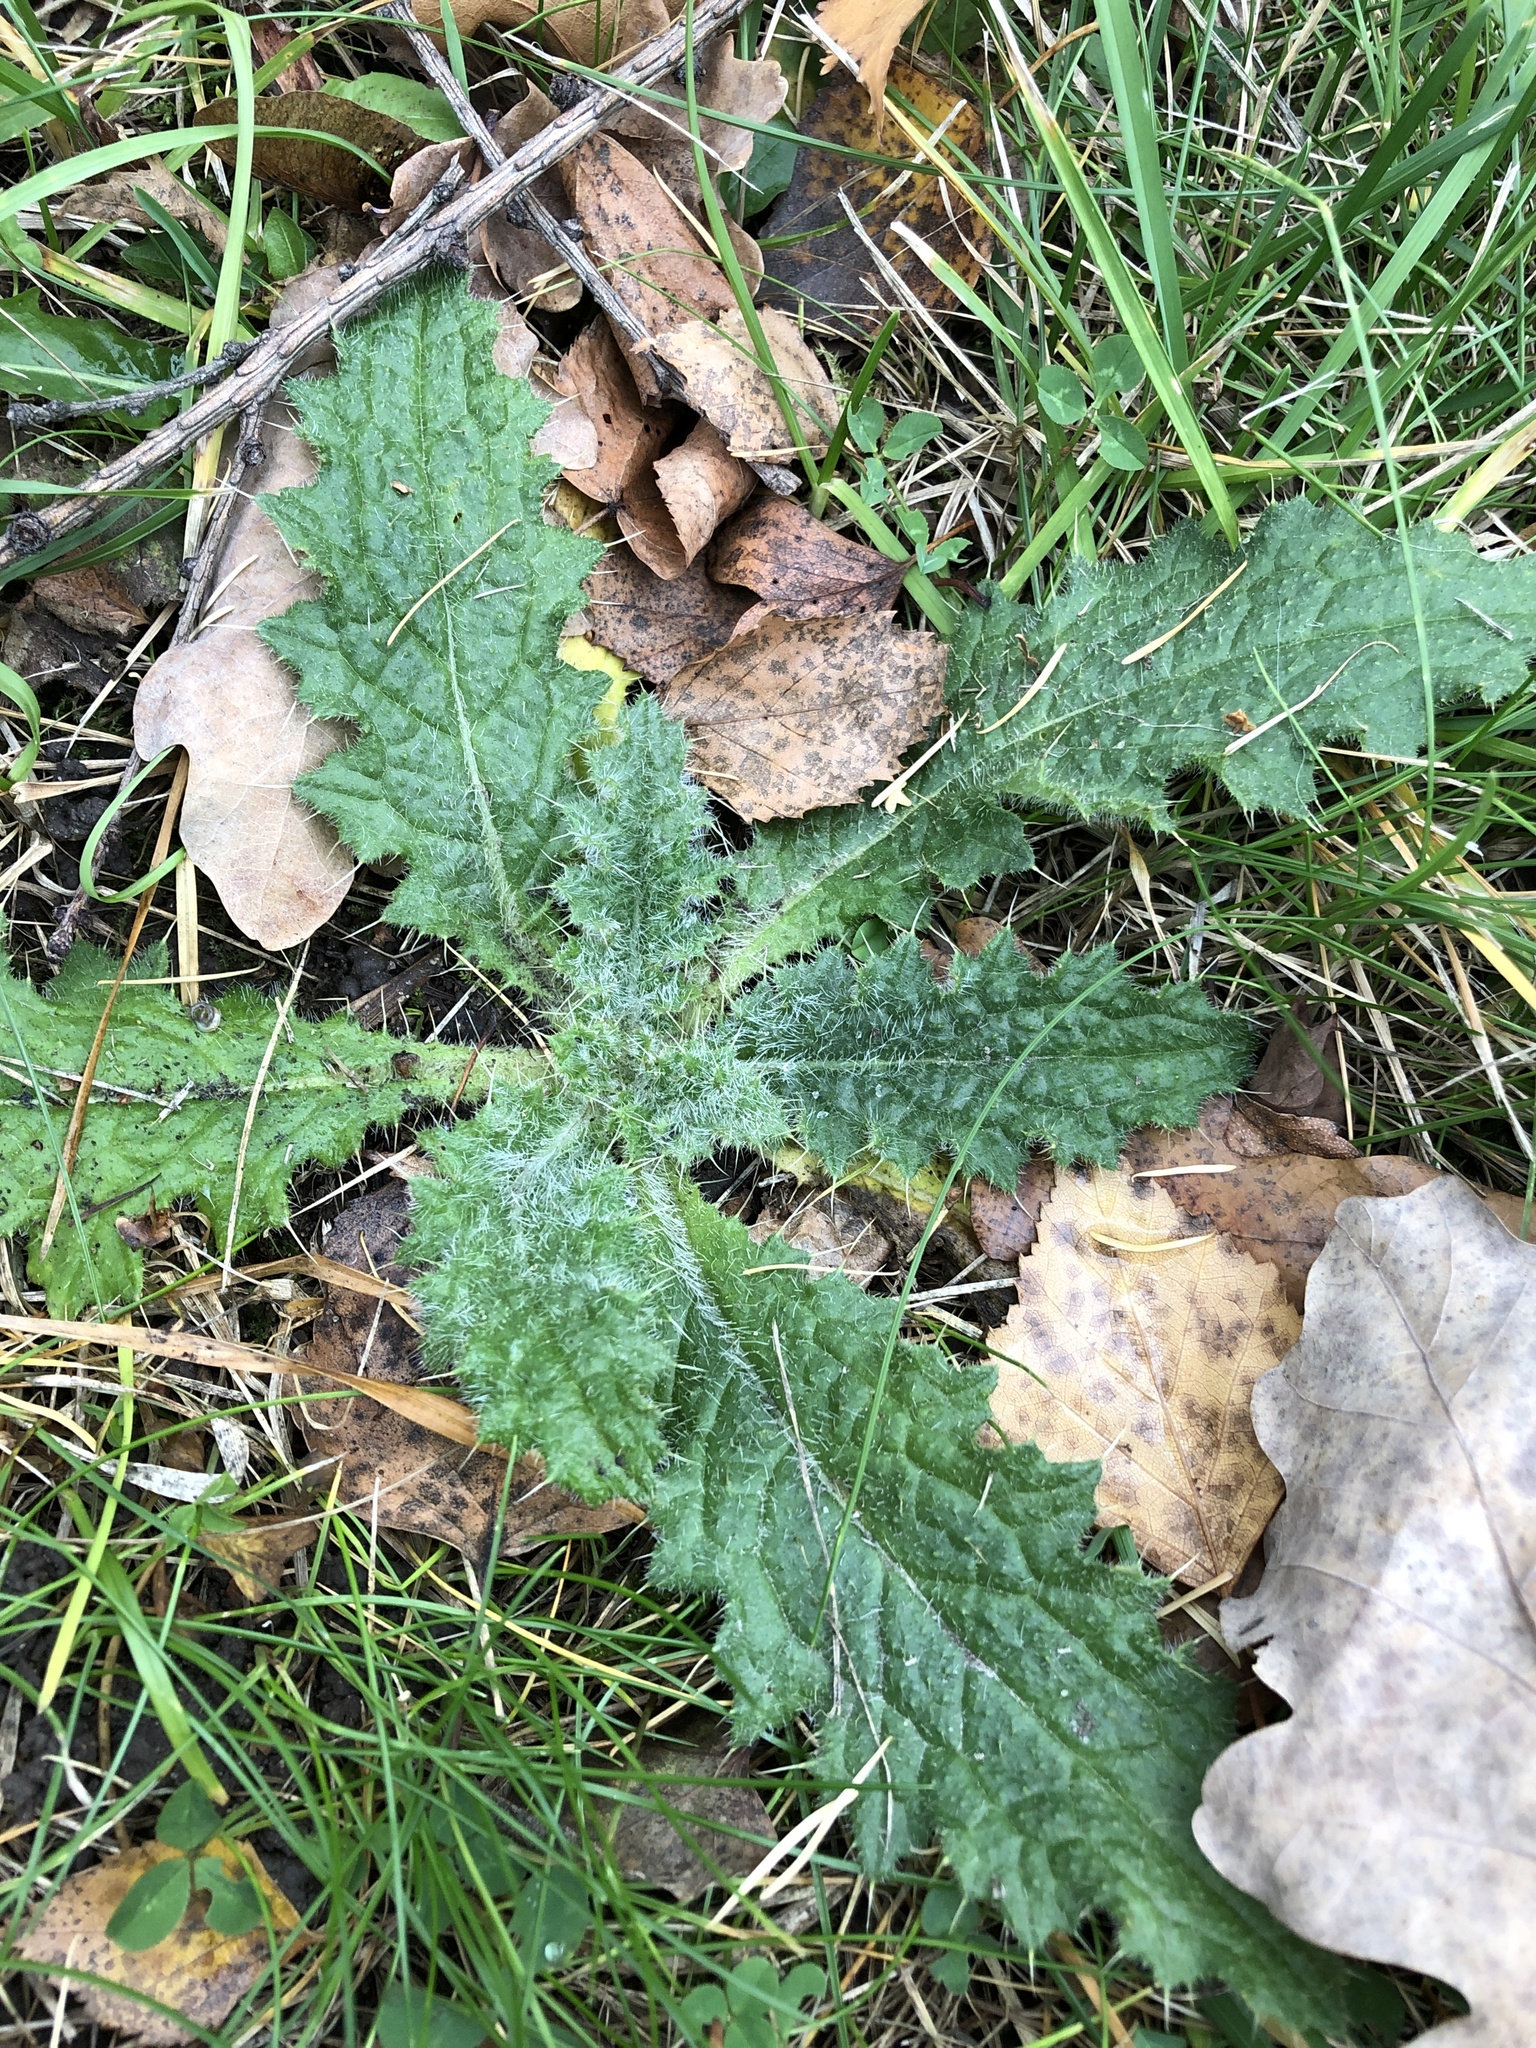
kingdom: Plantae
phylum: Tracheophyta
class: Magnoliopsida
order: Asterales
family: Asteraceae
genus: Cirsium
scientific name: Cirsium vulgare
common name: Bull thistle
